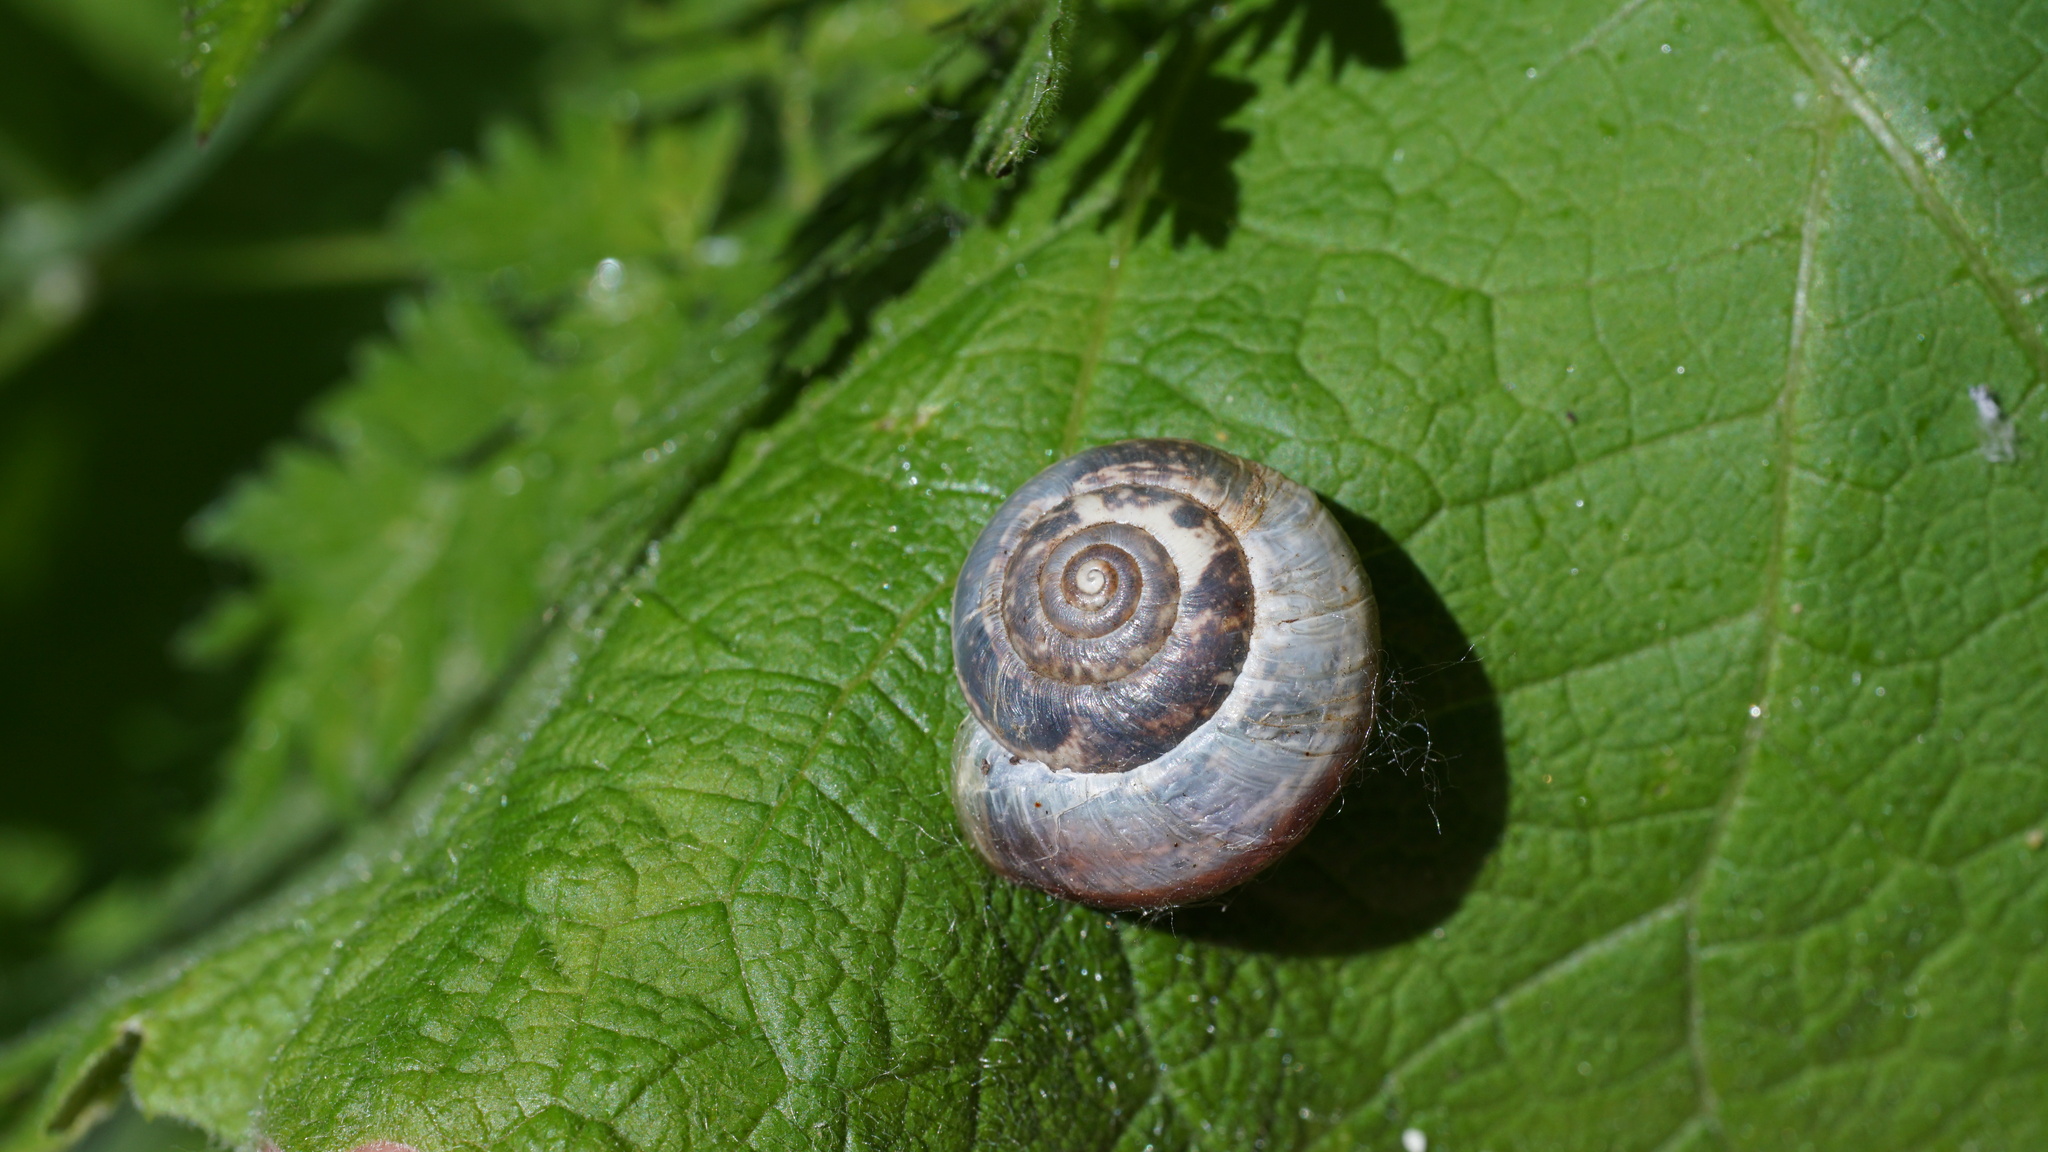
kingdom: Animalia
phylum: Mollusca
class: Gastropoda
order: Stylommatophora
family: Hygromiidae
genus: Monacha
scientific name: Monacha cantiana
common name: Kentish snail
